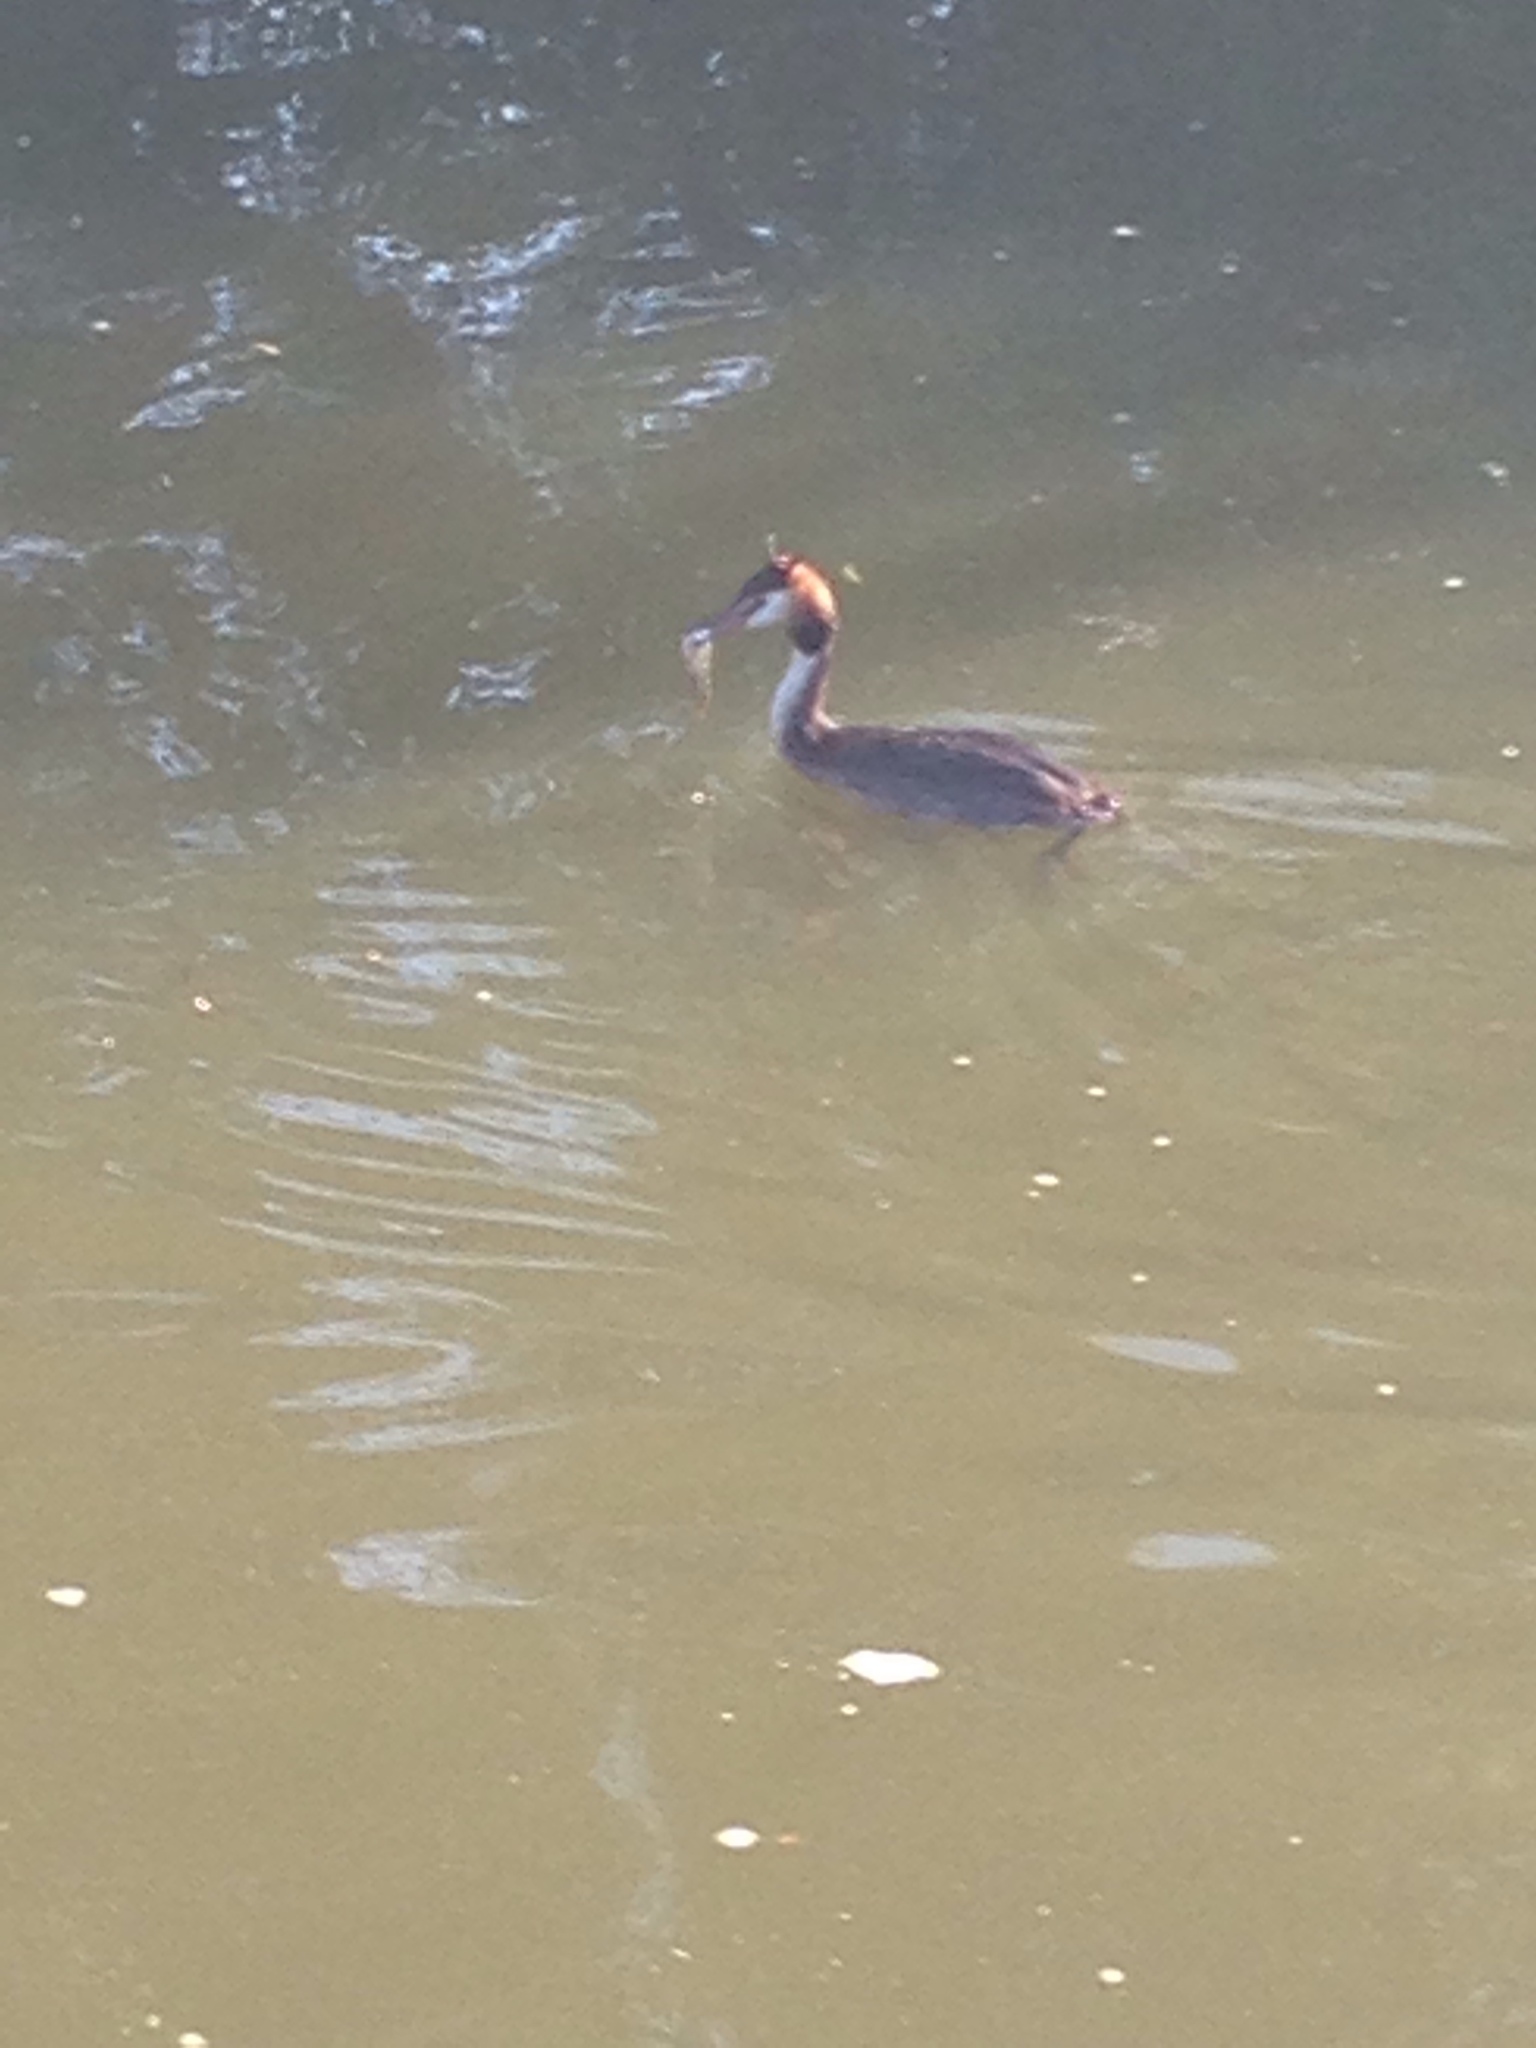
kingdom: Animalia
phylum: Chordata
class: Aves
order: Podicipediformes
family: Podicipedidae
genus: Podiceps
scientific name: Podiceps cristatus
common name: Great crested grebe
